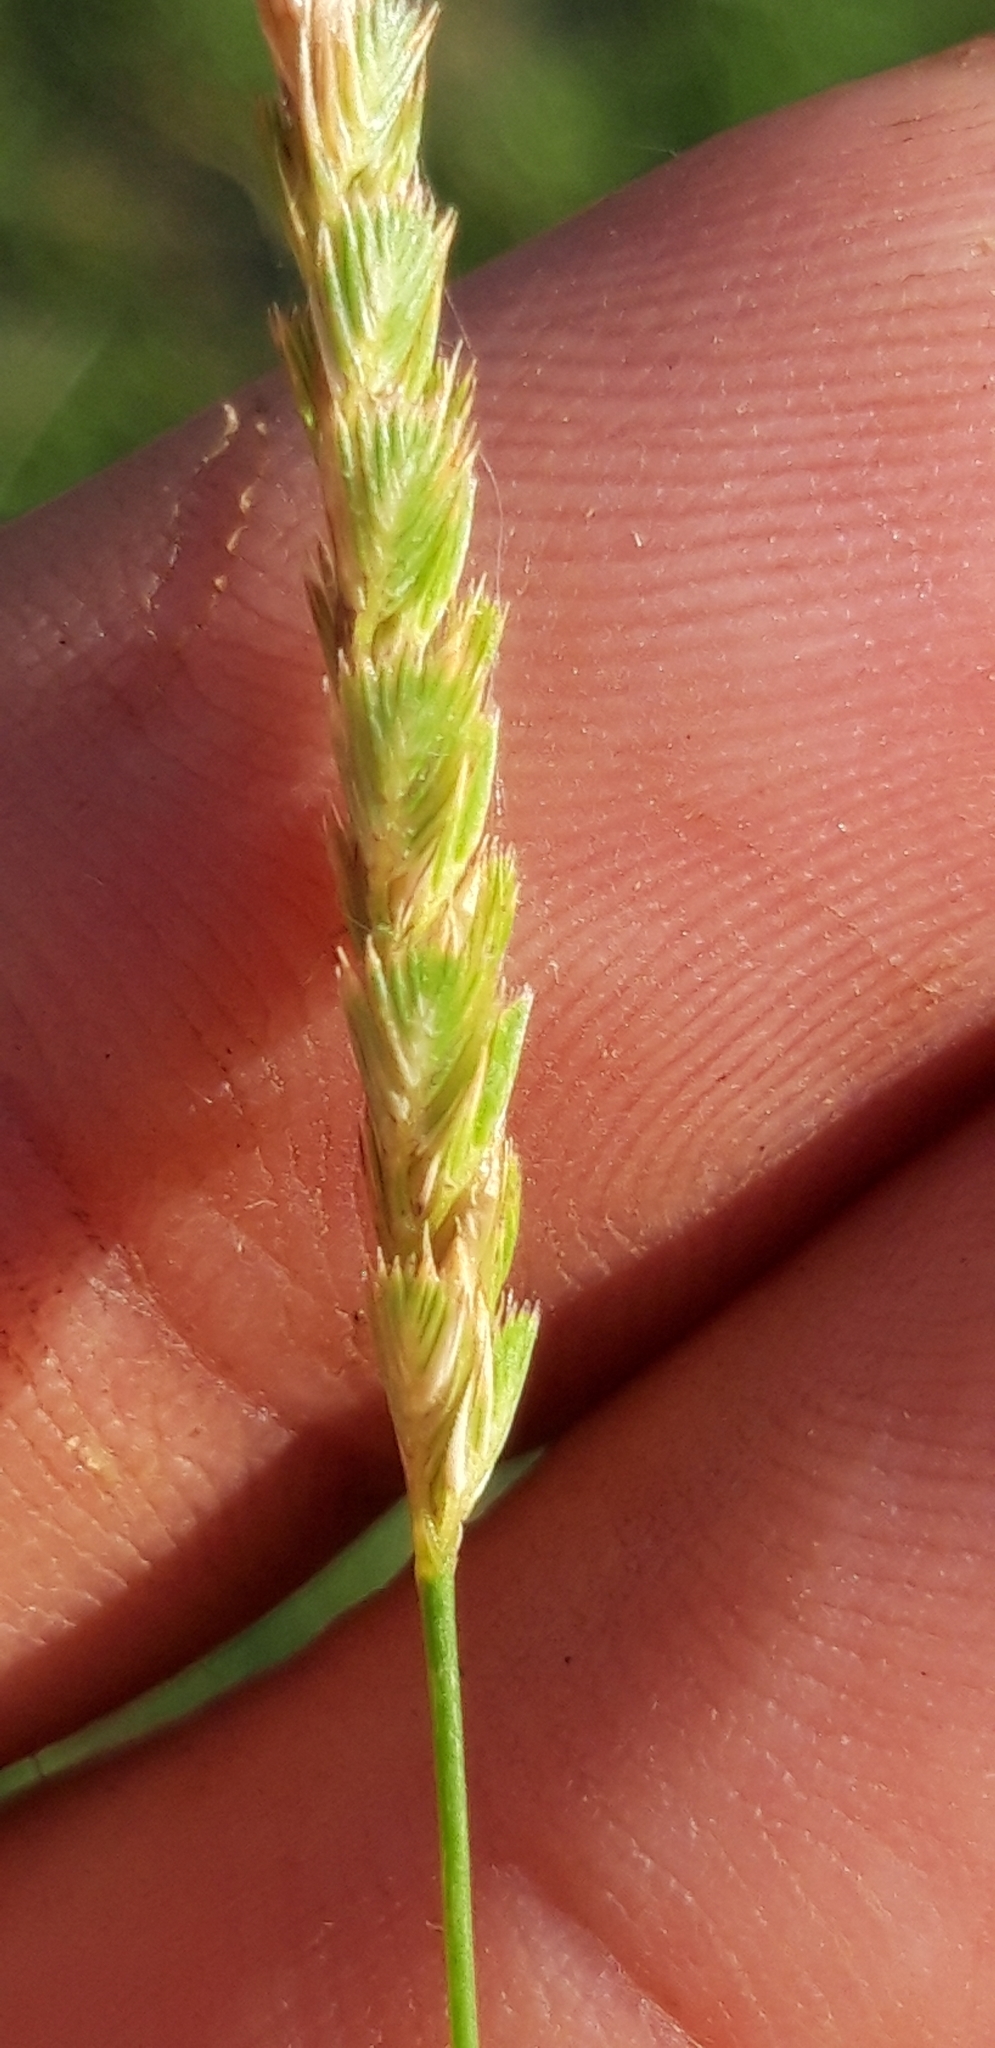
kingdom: Plantae
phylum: Tracheophyta
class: Liliopsida
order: Poales
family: Poaceae
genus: Cynosurus
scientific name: Cynosurus cristatus
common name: Crested dog's-tail
